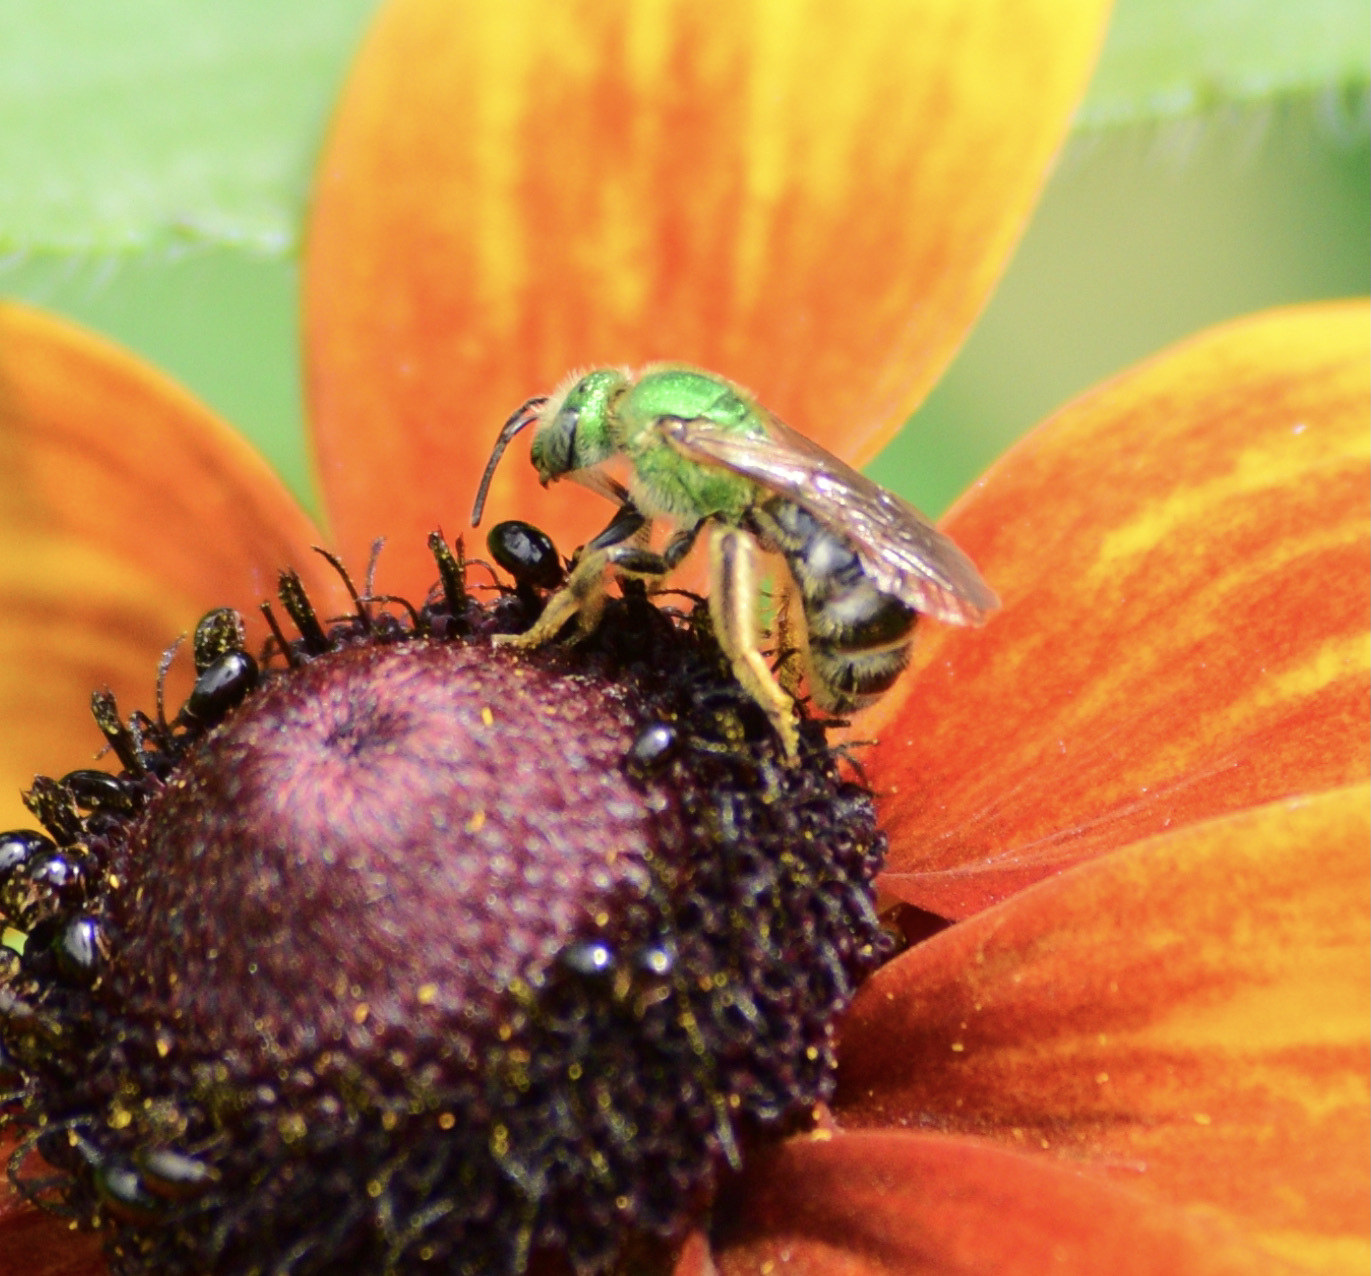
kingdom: Animalia
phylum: Arthropoda
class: Insecta
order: Hymenoptera
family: Halictidae
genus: Agapostemon
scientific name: Agapostemon virescens
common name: Bicolored striped sweat bee
